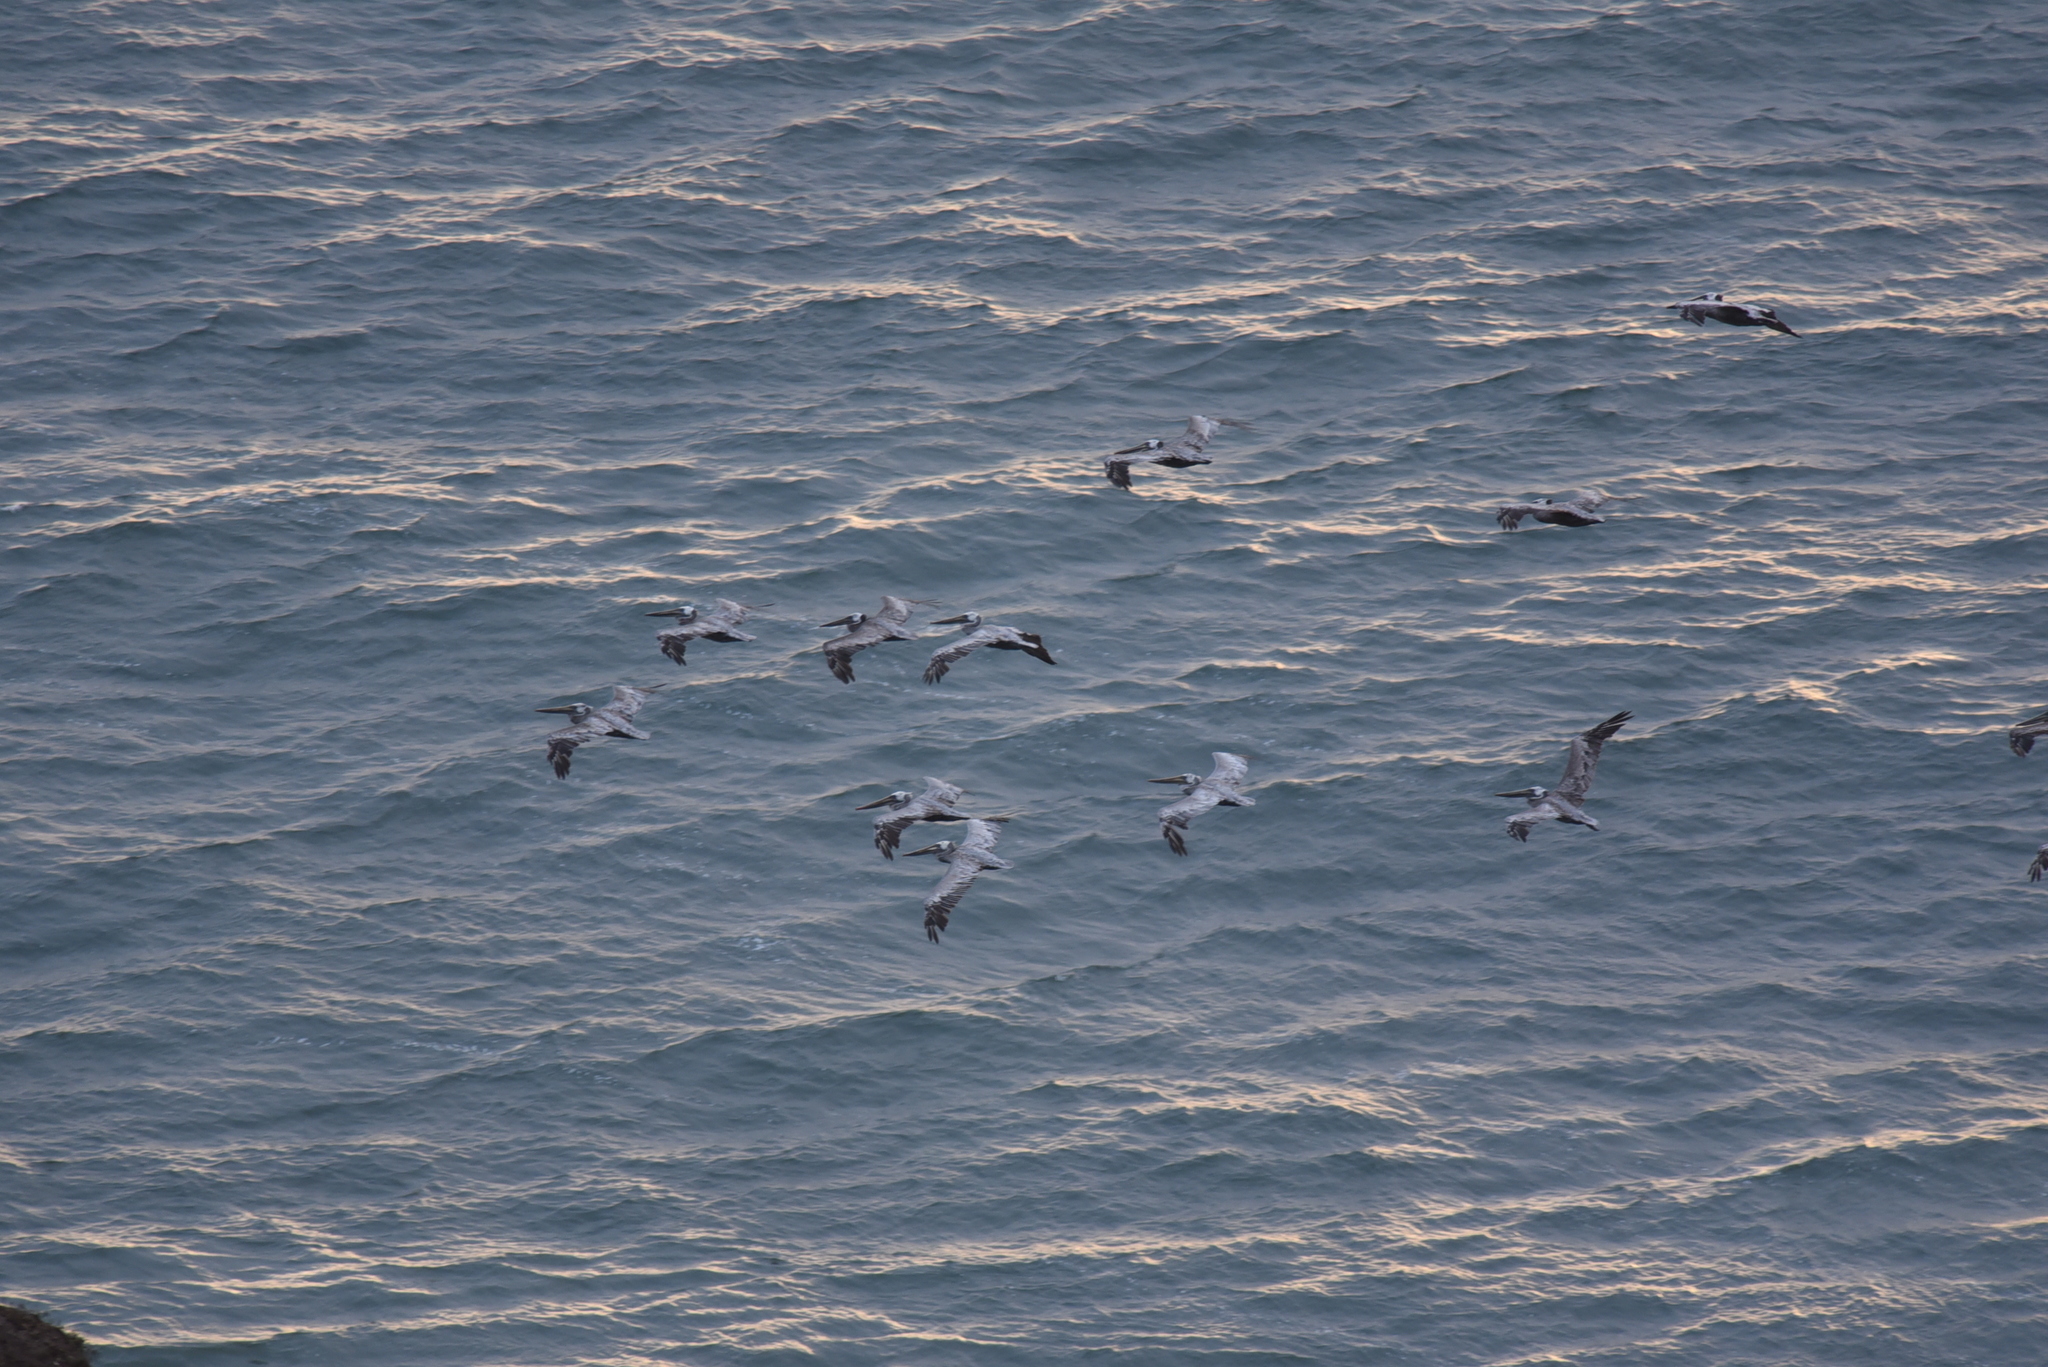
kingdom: Animalia
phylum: Chordata
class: Aves
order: Pelecaniformes
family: Pelecanidae
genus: Pelecanus
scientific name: Pelecanus occidentalis
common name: Brown pelican
